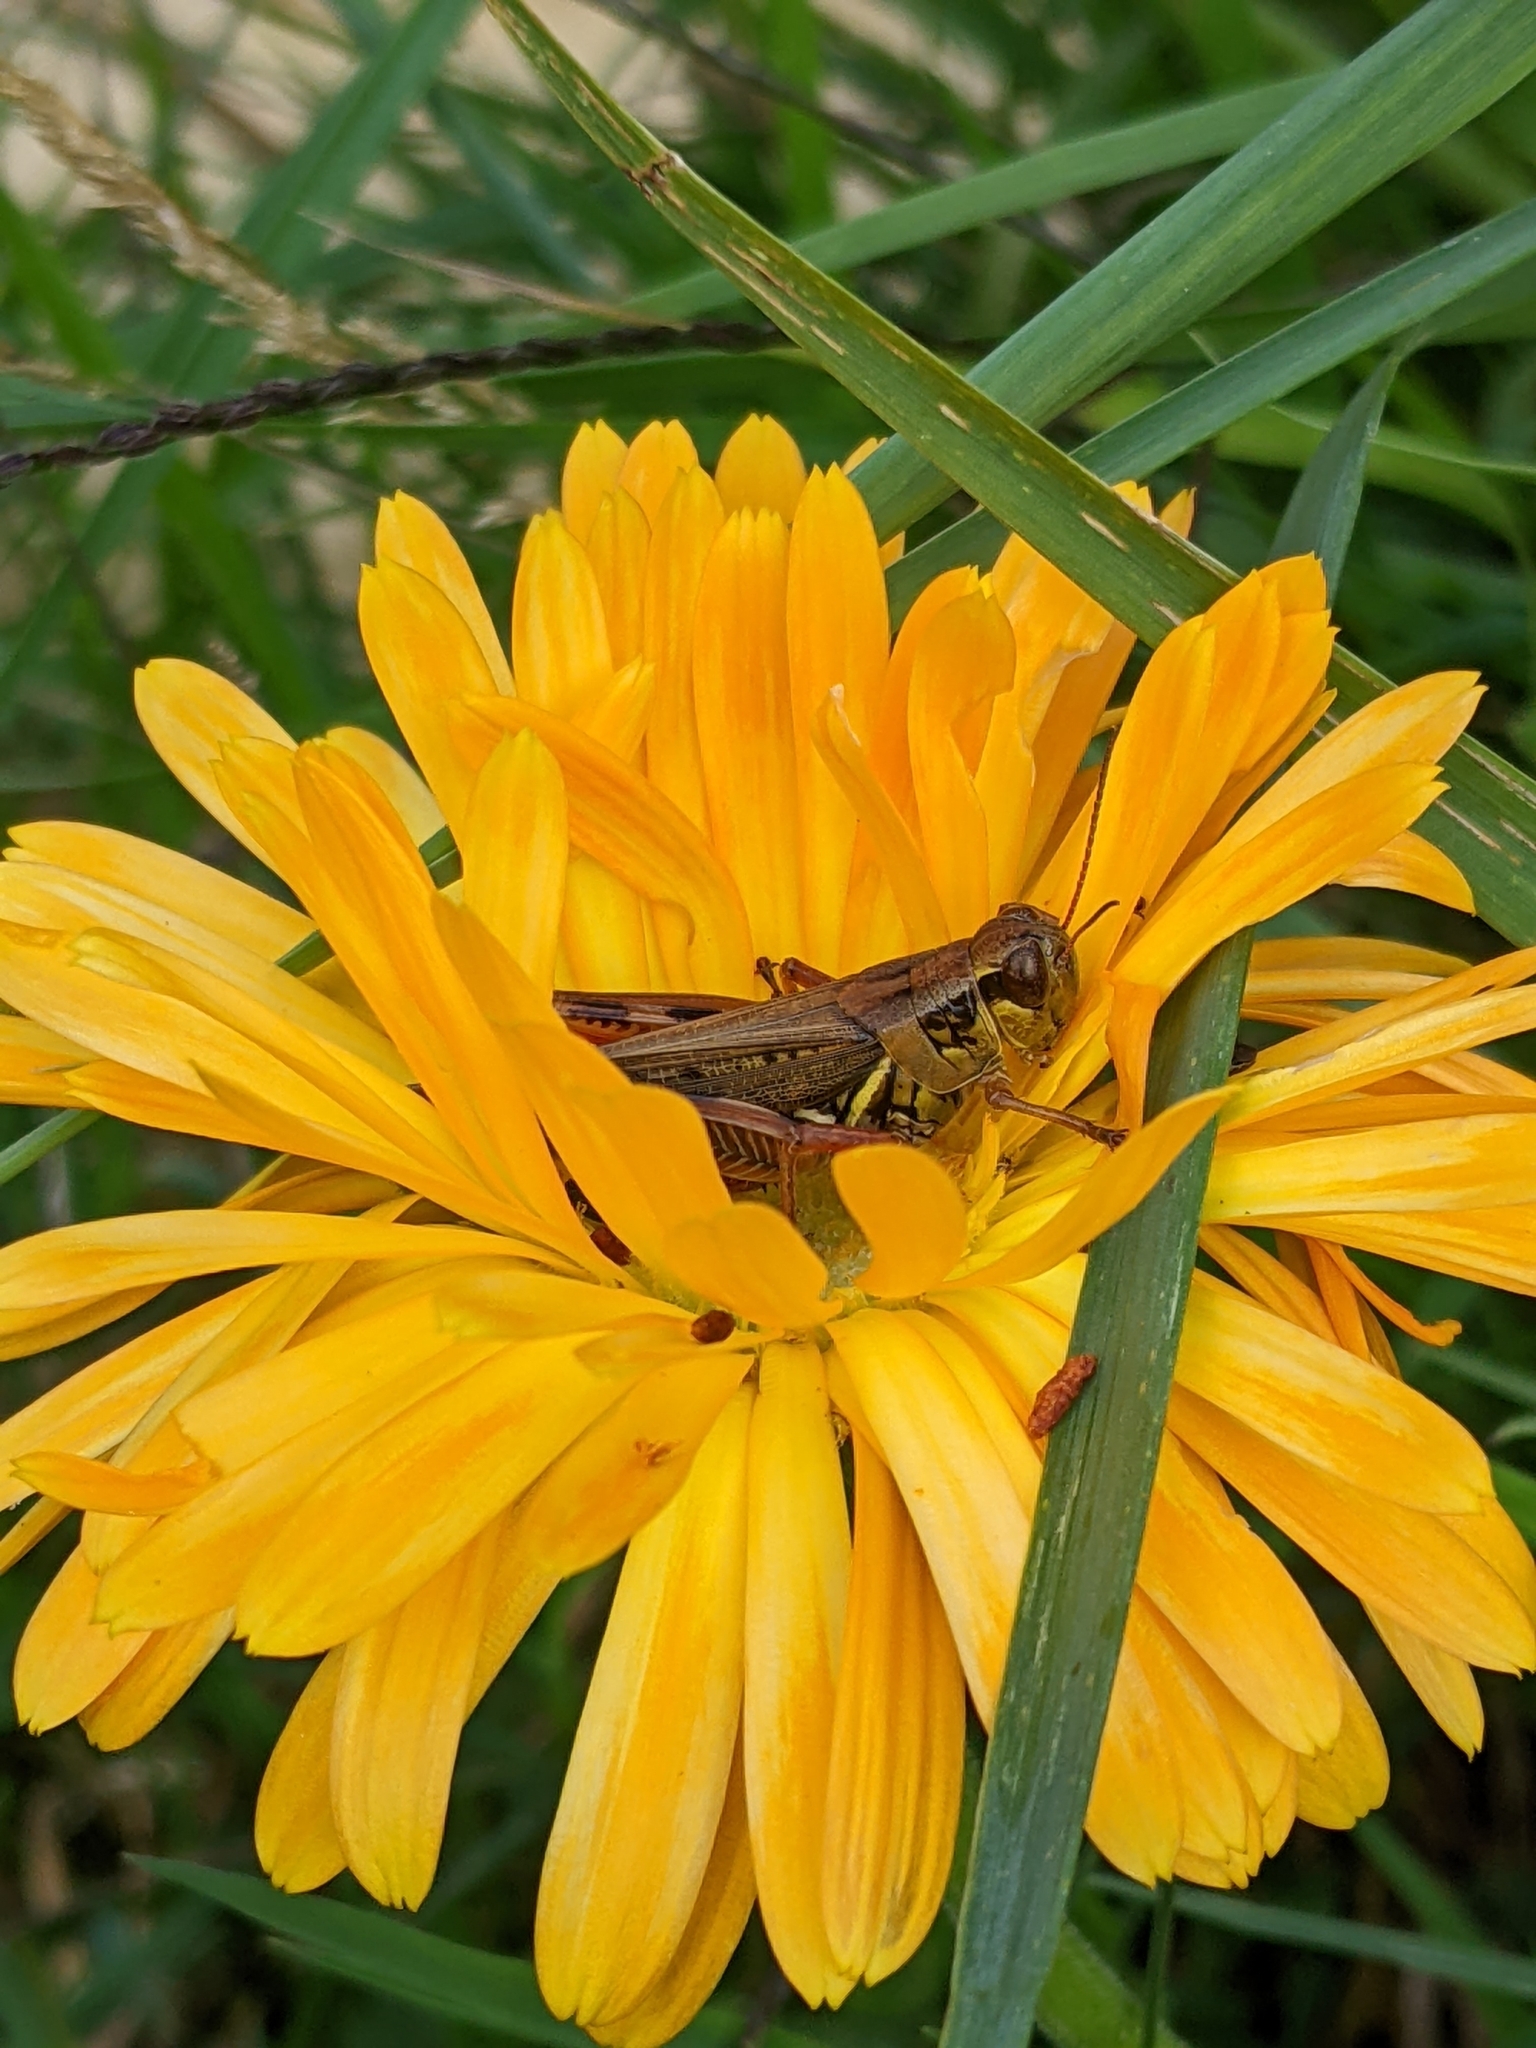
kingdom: Animalia
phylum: Arthropoda
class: Insecta
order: Orthoptera
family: Acrididae
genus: Melanoplus
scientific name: Melanoplus femurrubrum
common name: Red-legged grasshopper
